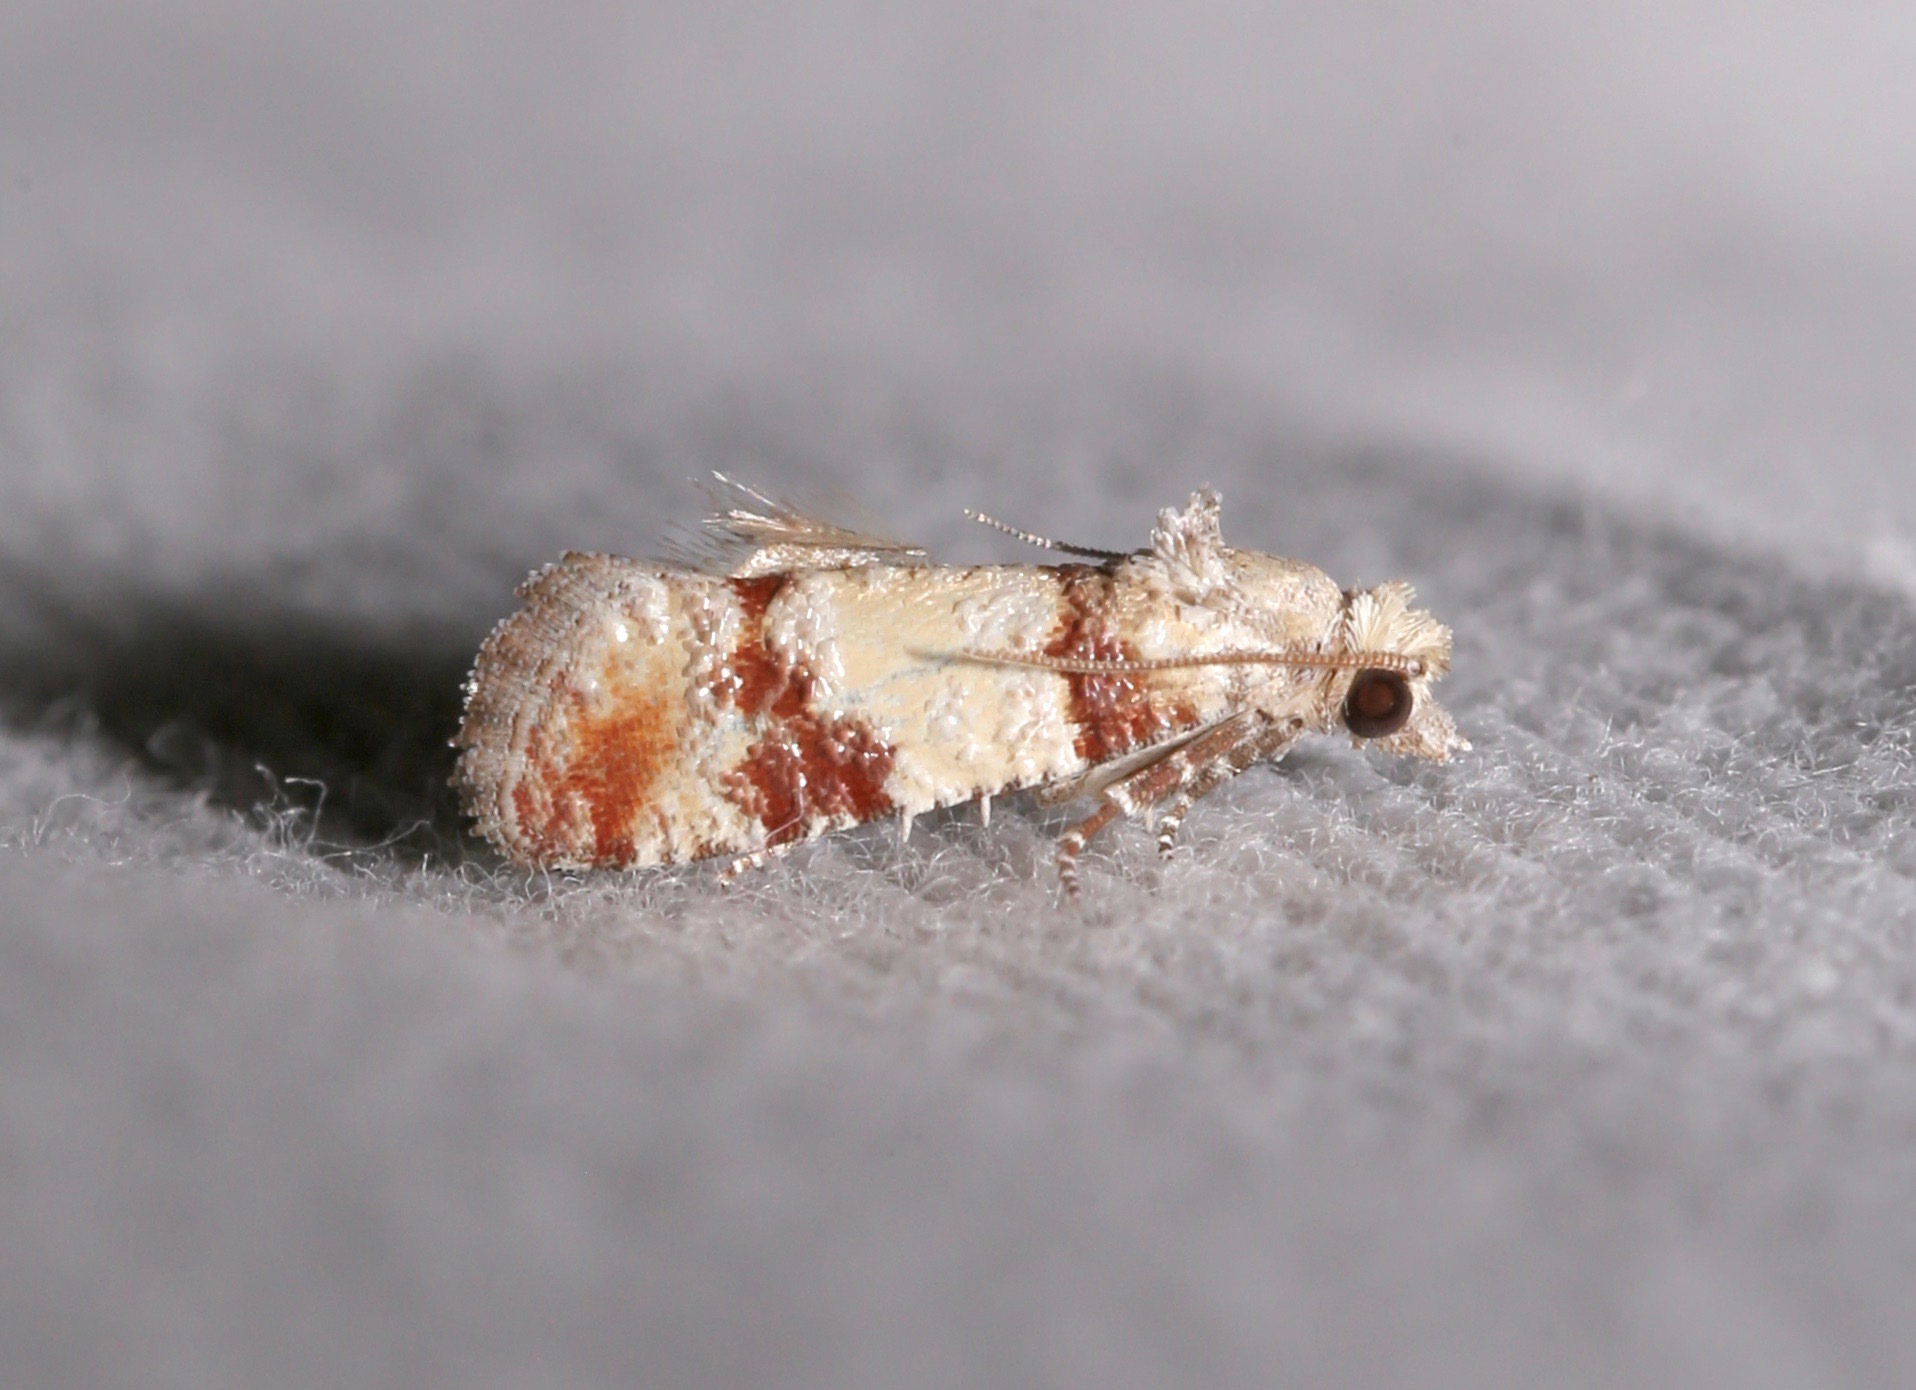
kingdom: Animalia
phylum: Arthropoda
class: Insecta
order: Lepidoptera
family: Tortricidae
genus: Rhyacionia
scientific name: Rhyacionia subtropica
